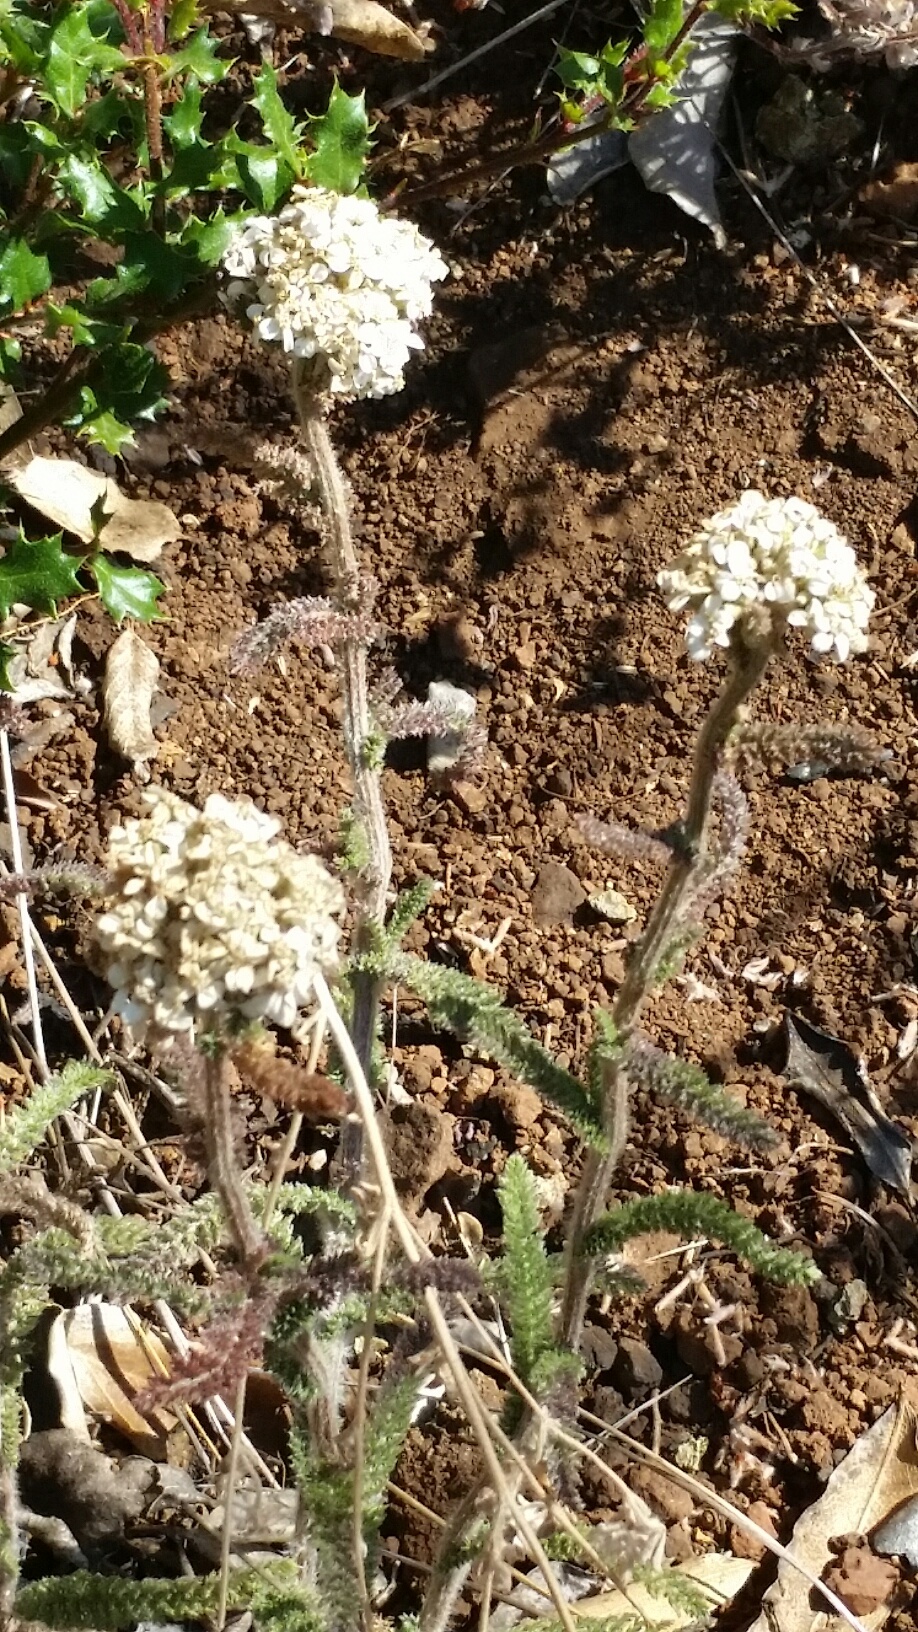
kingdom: Plantae
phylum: Tracheophyta
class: Magnoliopsida
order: Asterales
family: Asteraceae
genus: Achillea
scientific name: Achillea millefolium
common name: Yarrow
